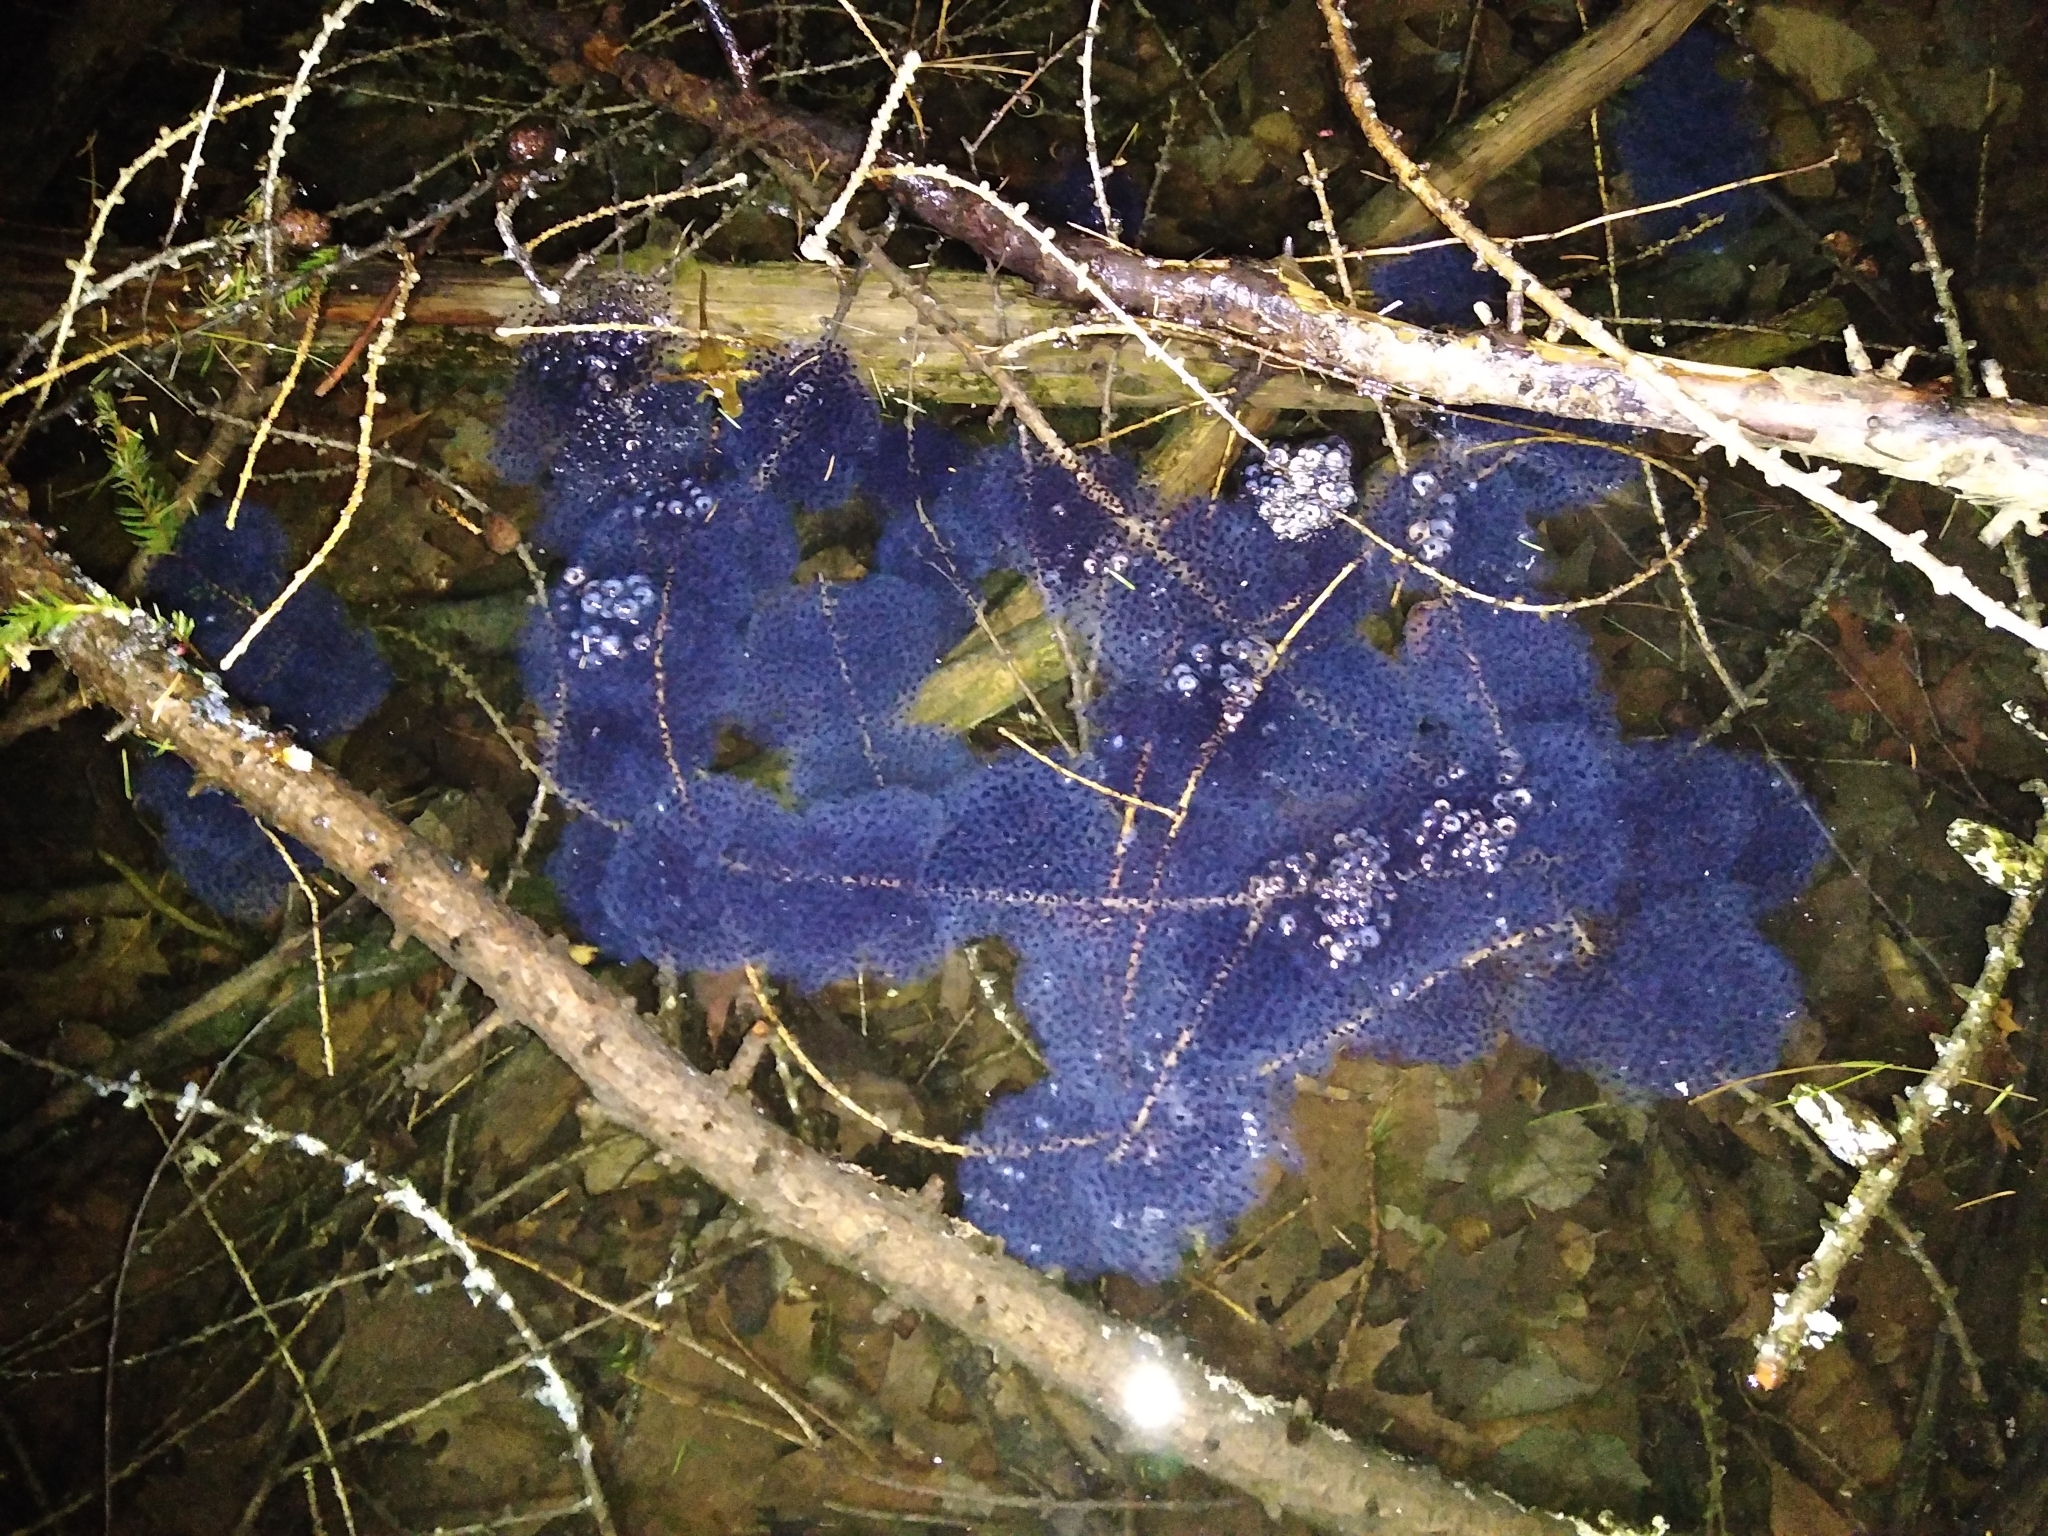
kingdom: Animalia
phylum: Chordata
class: Amphibia
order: Anura
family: Ranidae
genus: Lithobates
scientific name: Lithobates sylvaticus
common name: Wood frog
